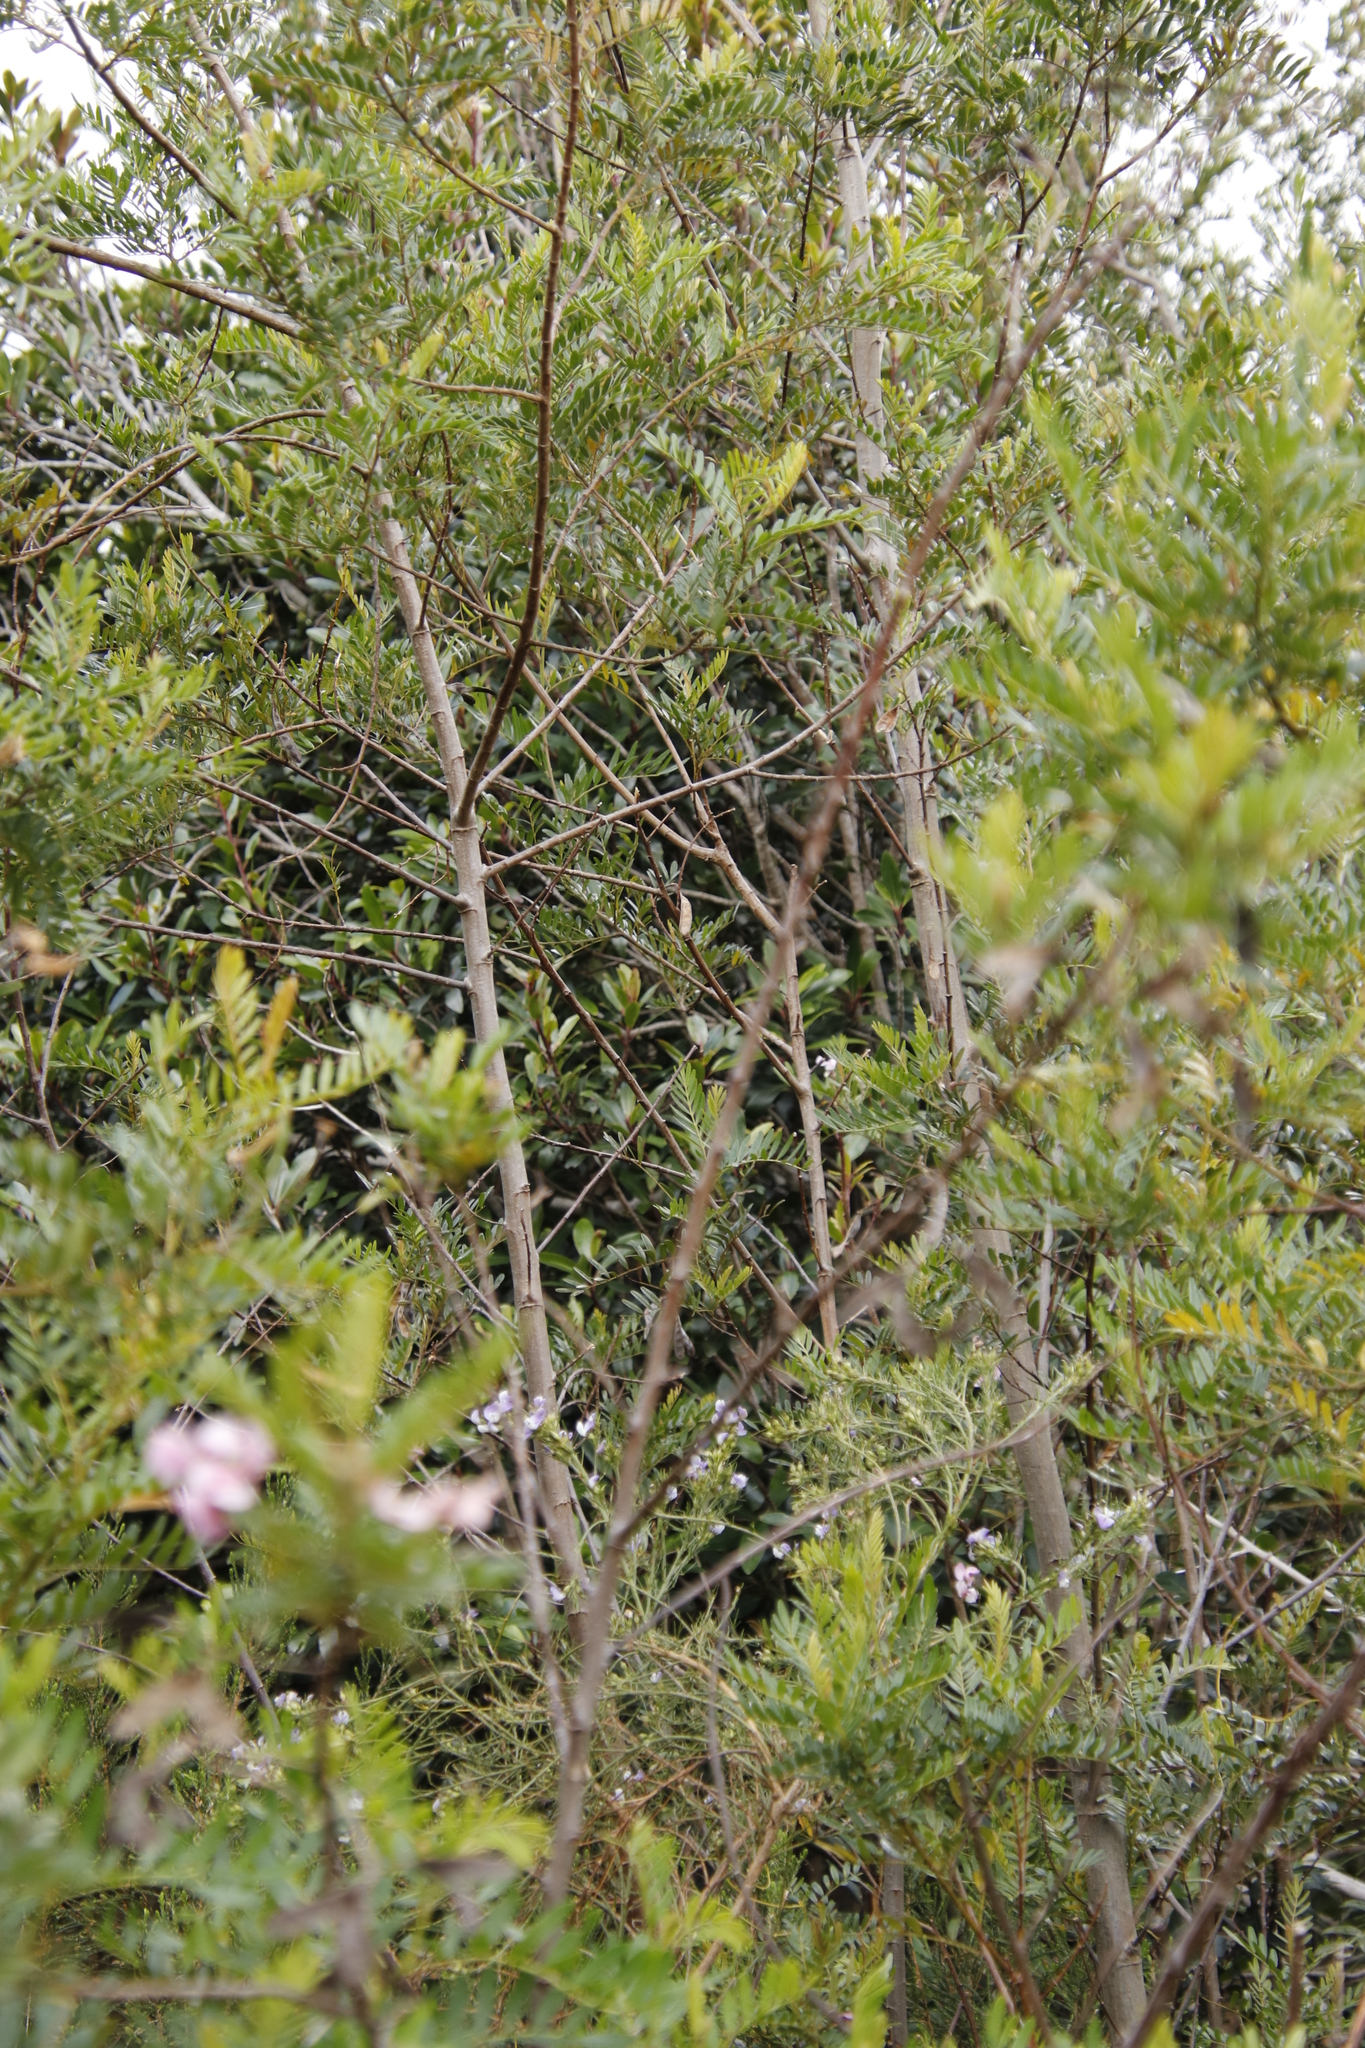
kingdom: Plantae
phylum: Tracheophyta
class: Magnoliopsida
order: Fabales
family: Fabaceae
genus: Virgilia
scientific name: Virgilia oroboides
